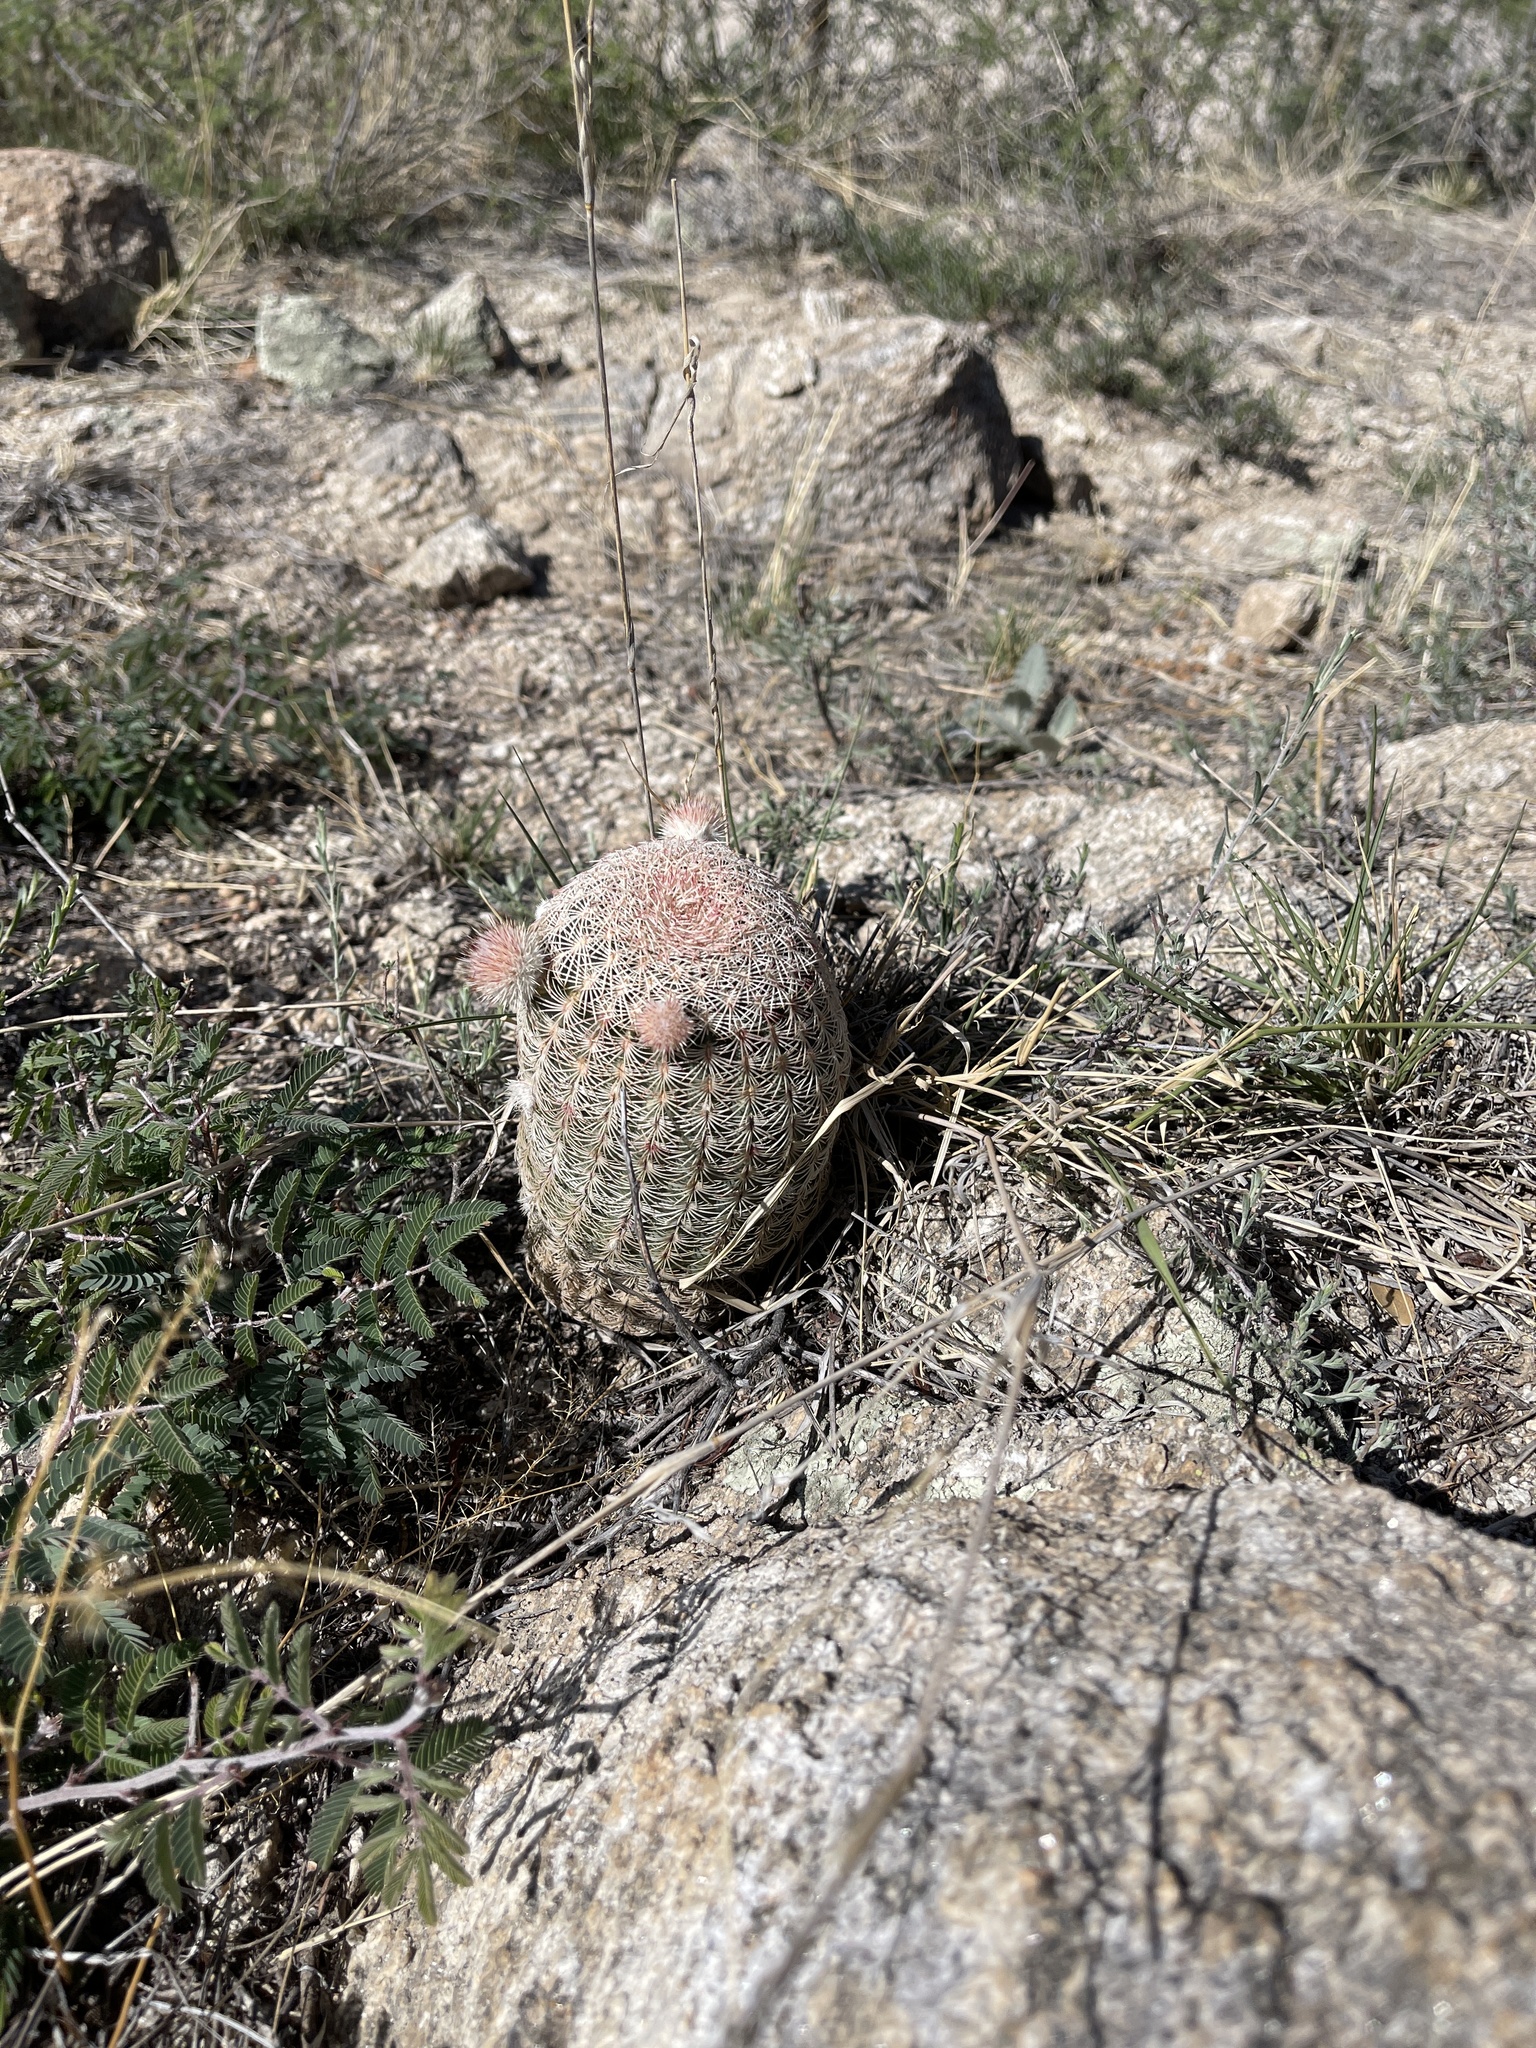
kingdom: Plantae
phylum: Tracheophyta
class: Magnoliopsida
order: Caryophyllales
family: Cactaceae
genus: Echinocereus
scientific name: Echinocereus rigidissimus
